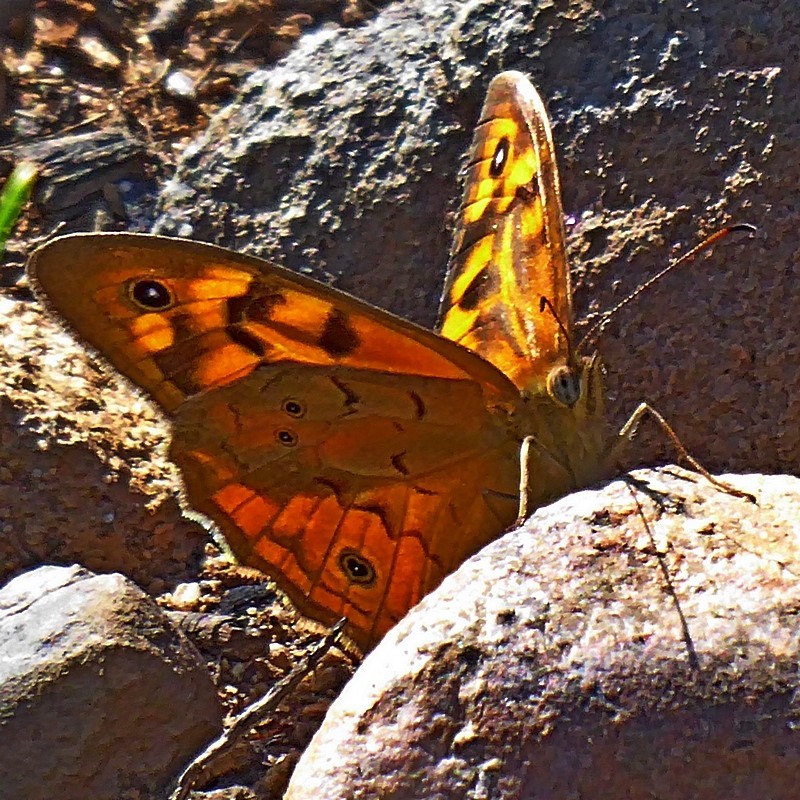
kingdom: Animalia
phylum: Arthropoda
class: Insecta
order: Lepidoptera
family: Nymphalidae
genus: Heteronympha
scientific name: Heteronympha merope
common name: Common brown
